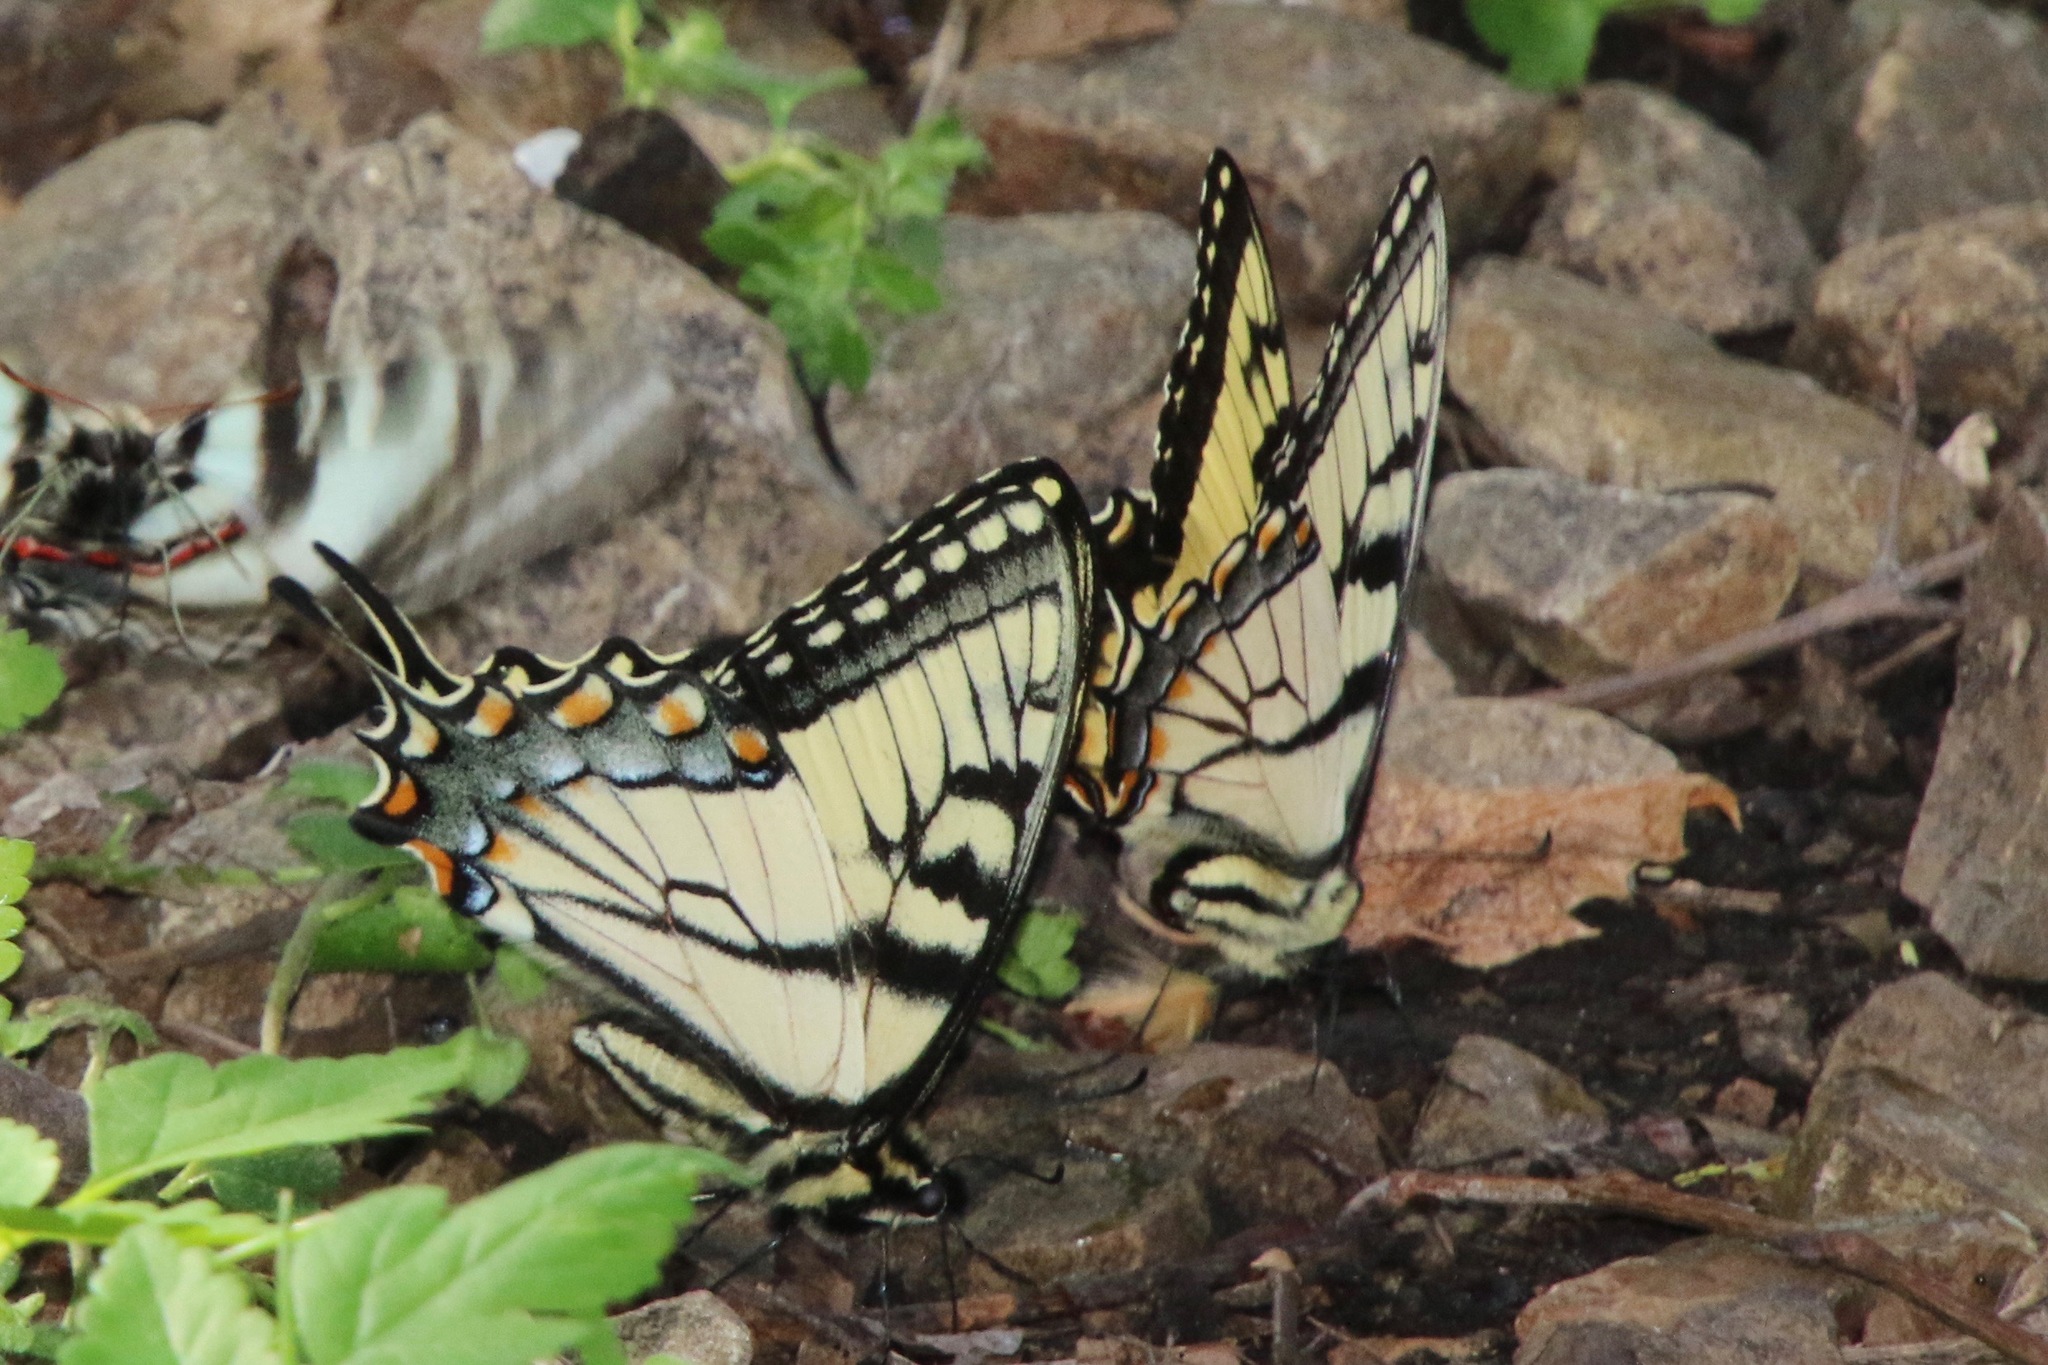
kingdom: Animalia
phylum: Arthropoda
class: Insecta
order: Lepidoptera
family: Papilionidae
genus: Papilio
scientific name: Papilio glaucus
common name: Tiger swallowtail
